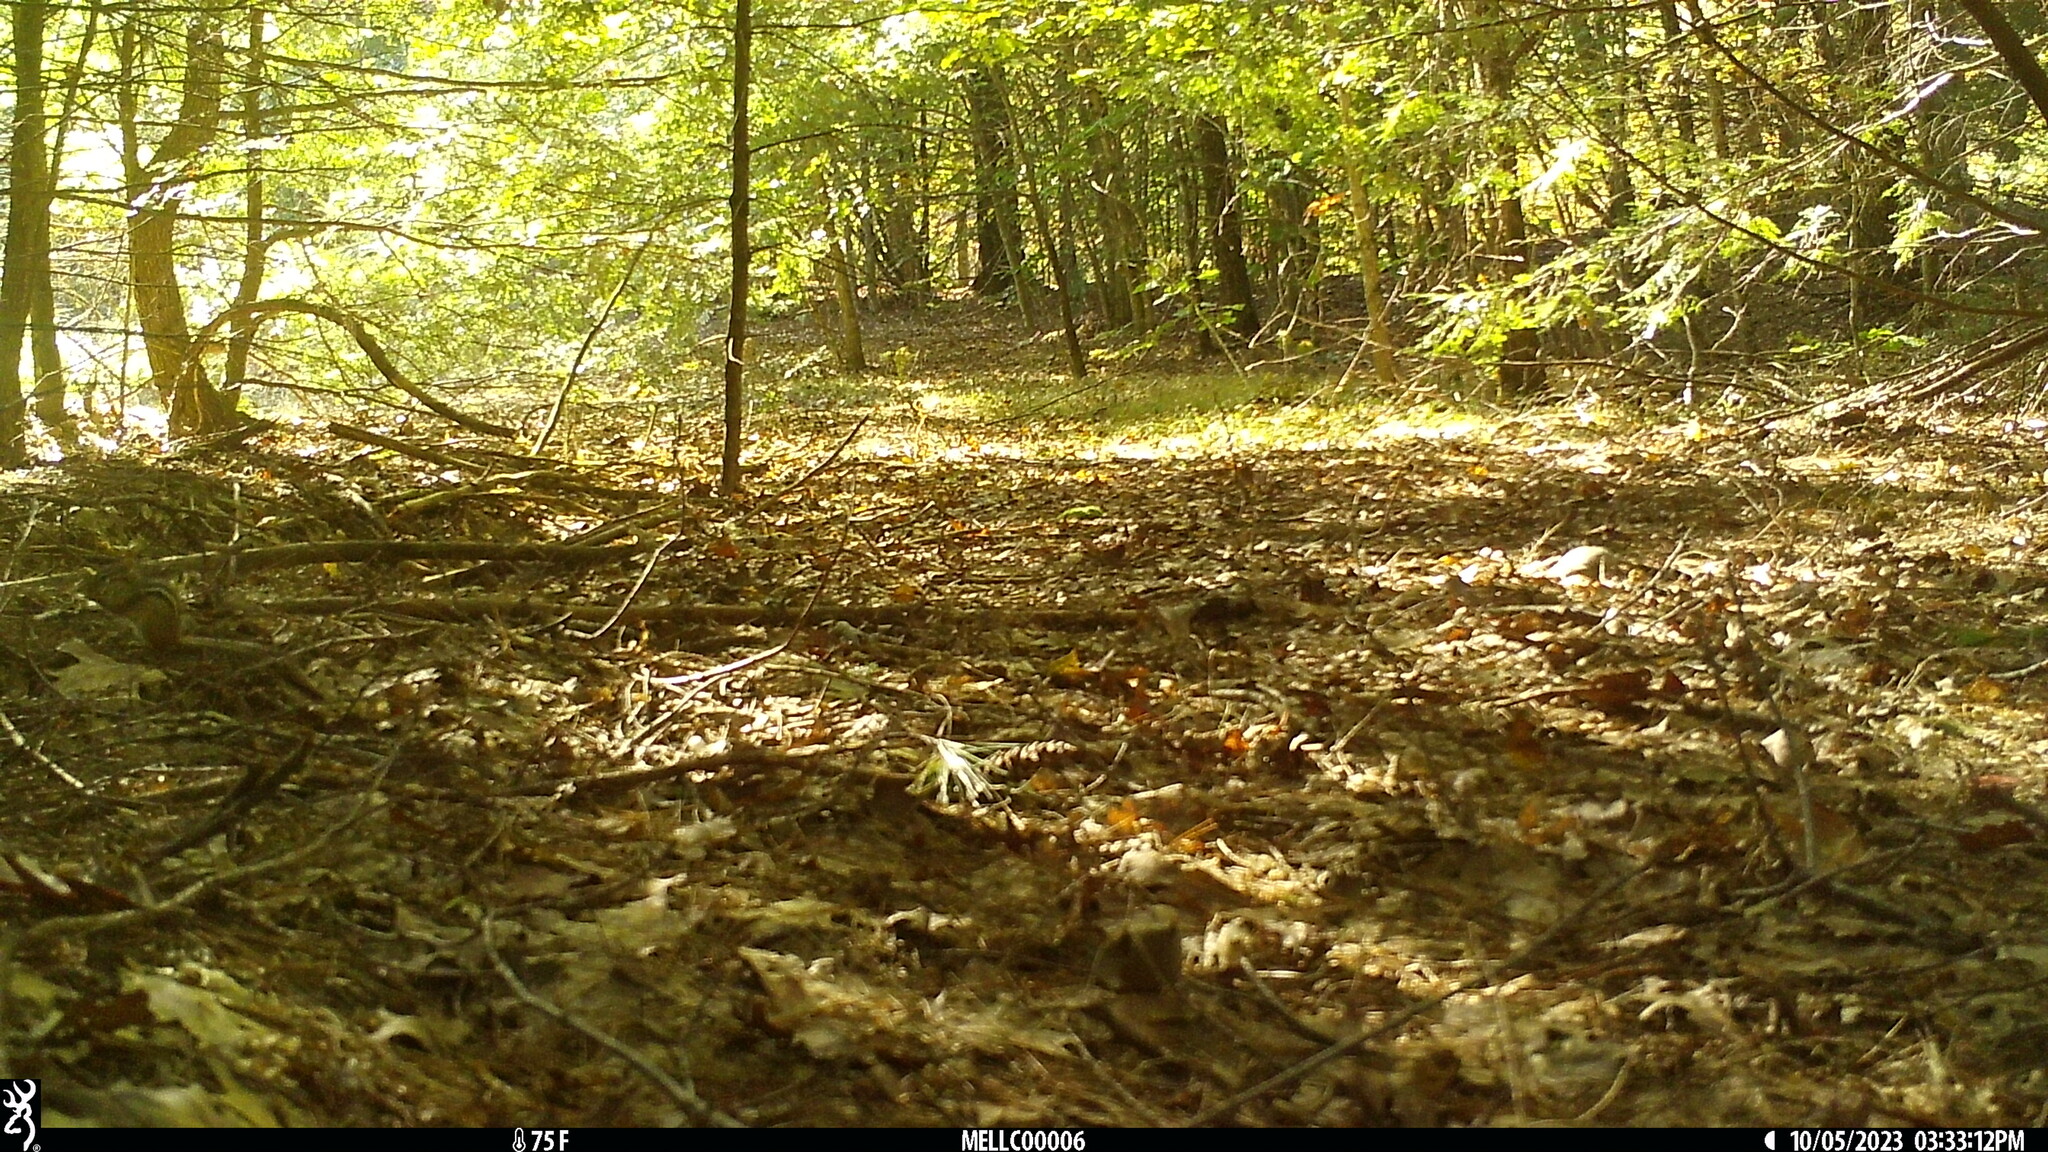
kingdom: Animalia
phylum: Chordata
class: Mammalia
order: Rodentia
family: Sciuridae
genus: Tamias
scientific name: Tamias striatus
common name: Eastern chipmunk
